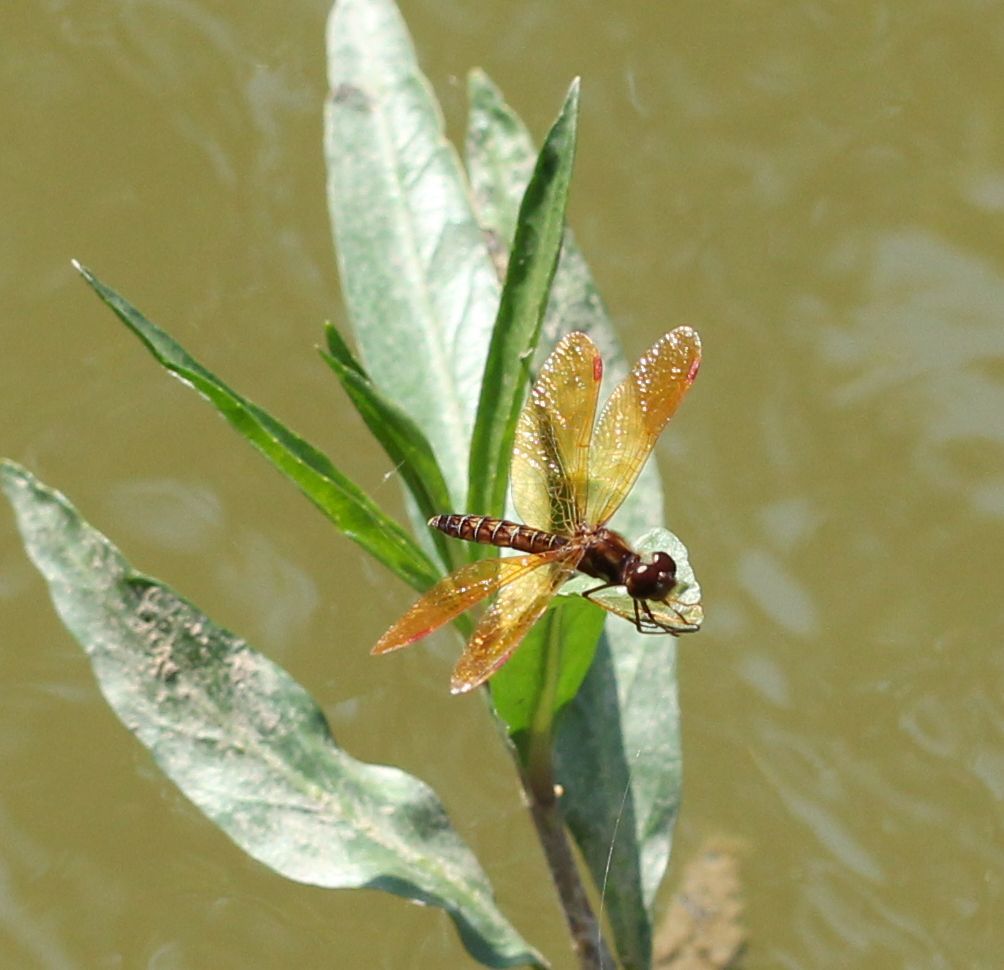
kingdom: Animalia
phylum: Arthropoda
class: Insecta
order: Odonata
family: Libellulidae
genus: Perithemis
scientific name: Perithemis tenera
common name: Eastern amberwing
